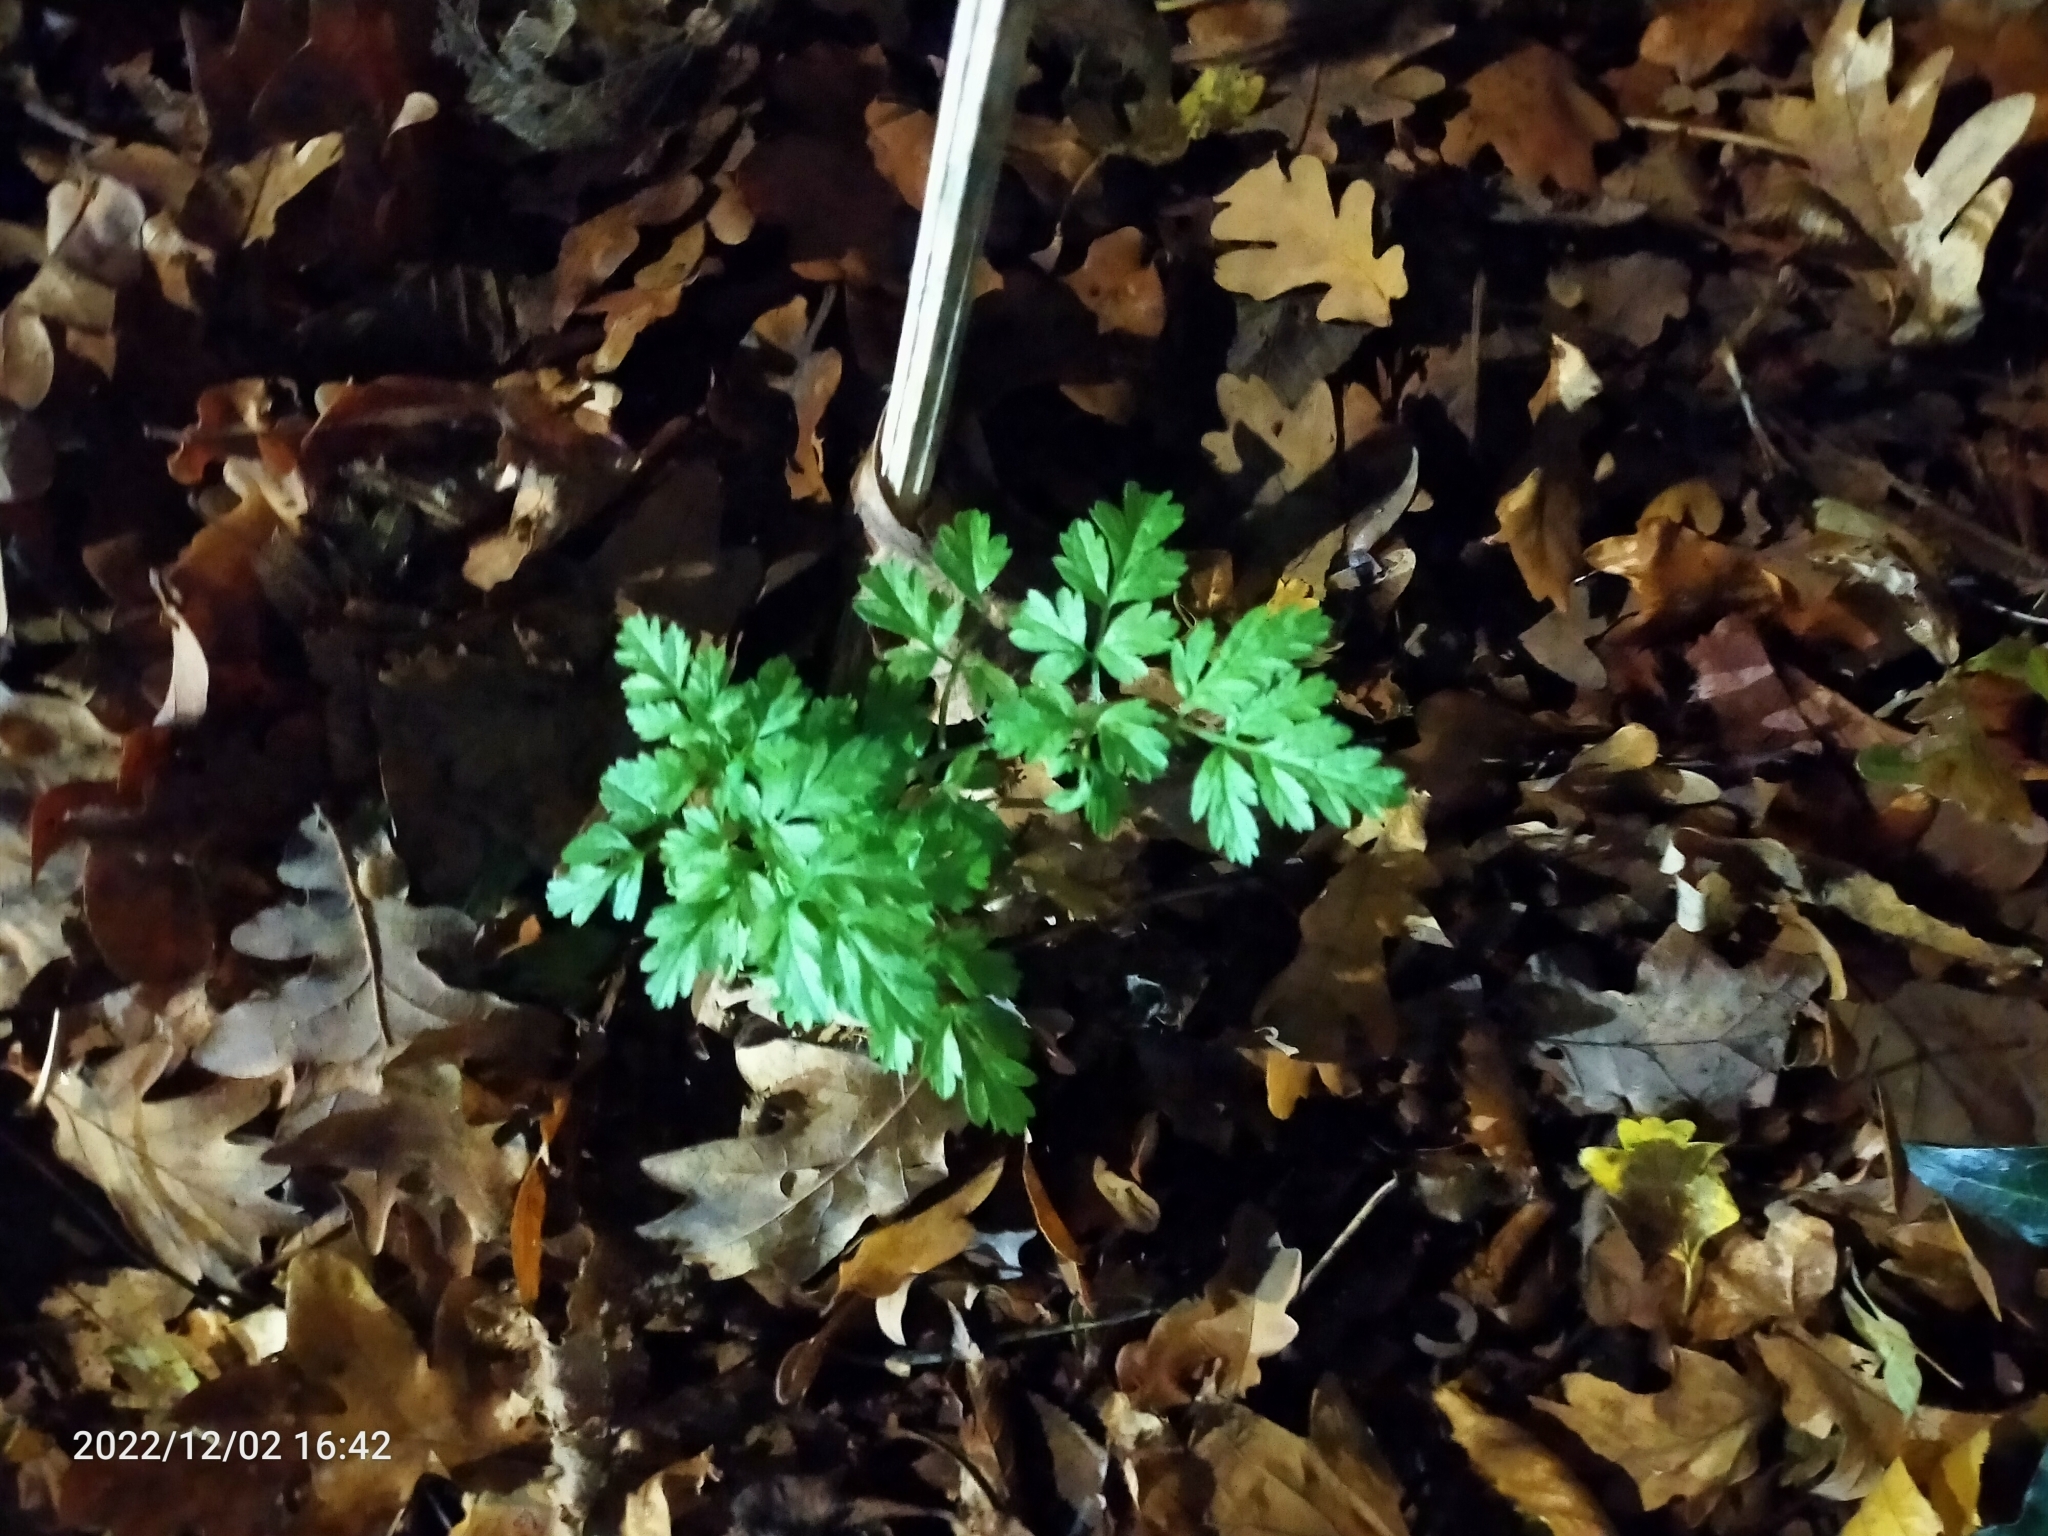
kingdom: Plantae
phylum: Tracheophyta
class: Magnoliopsida
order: Geraniales
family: Geraniaceae
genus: Geranium
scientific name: Geranium robertianum
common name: Herb-robert
